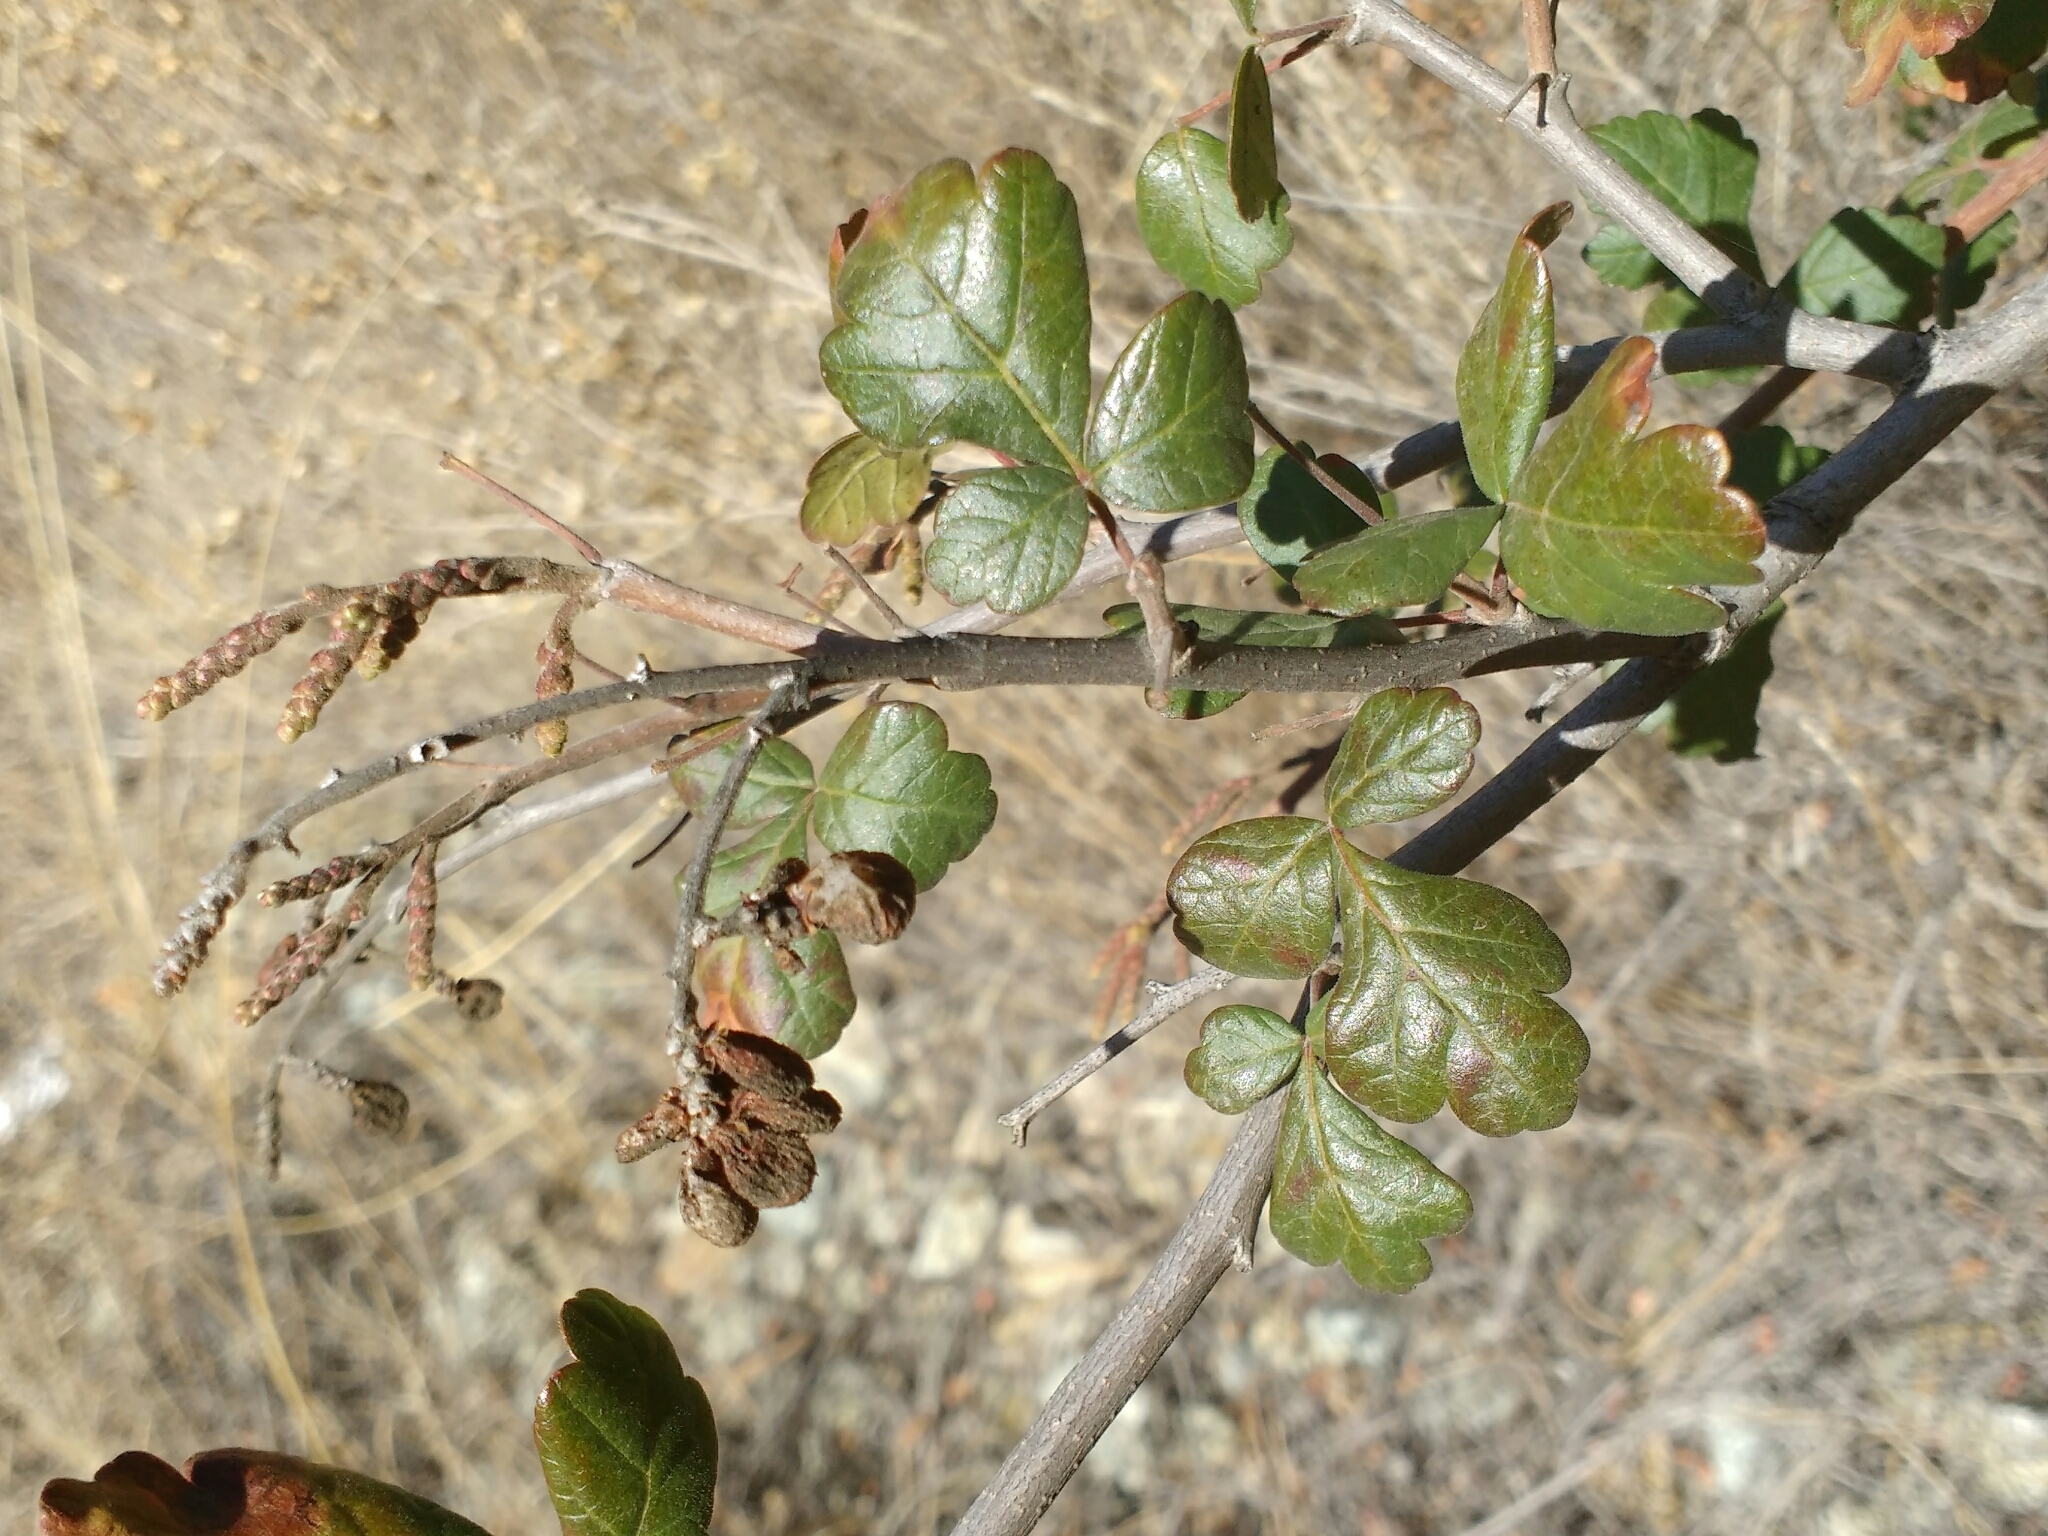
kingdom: Plantae
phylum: Tracheophyta
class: Magnoliopsida
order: Sapindales
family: Anacardiaceae
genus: Rhus
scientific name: Rhus aromatica
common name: Aromatic sumac
